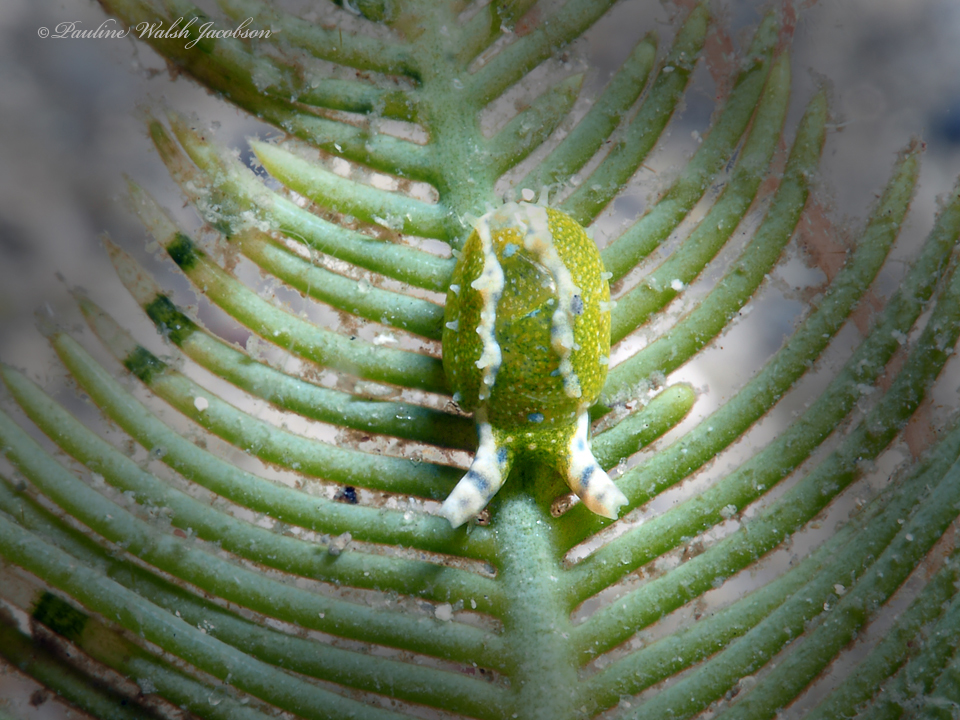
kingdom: Animalia
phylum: Mollusca
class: Gastropoda
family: Oxynoidae
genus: Oxynoe
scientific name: Oxynoe antillarum
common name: Antilles oxynoe
